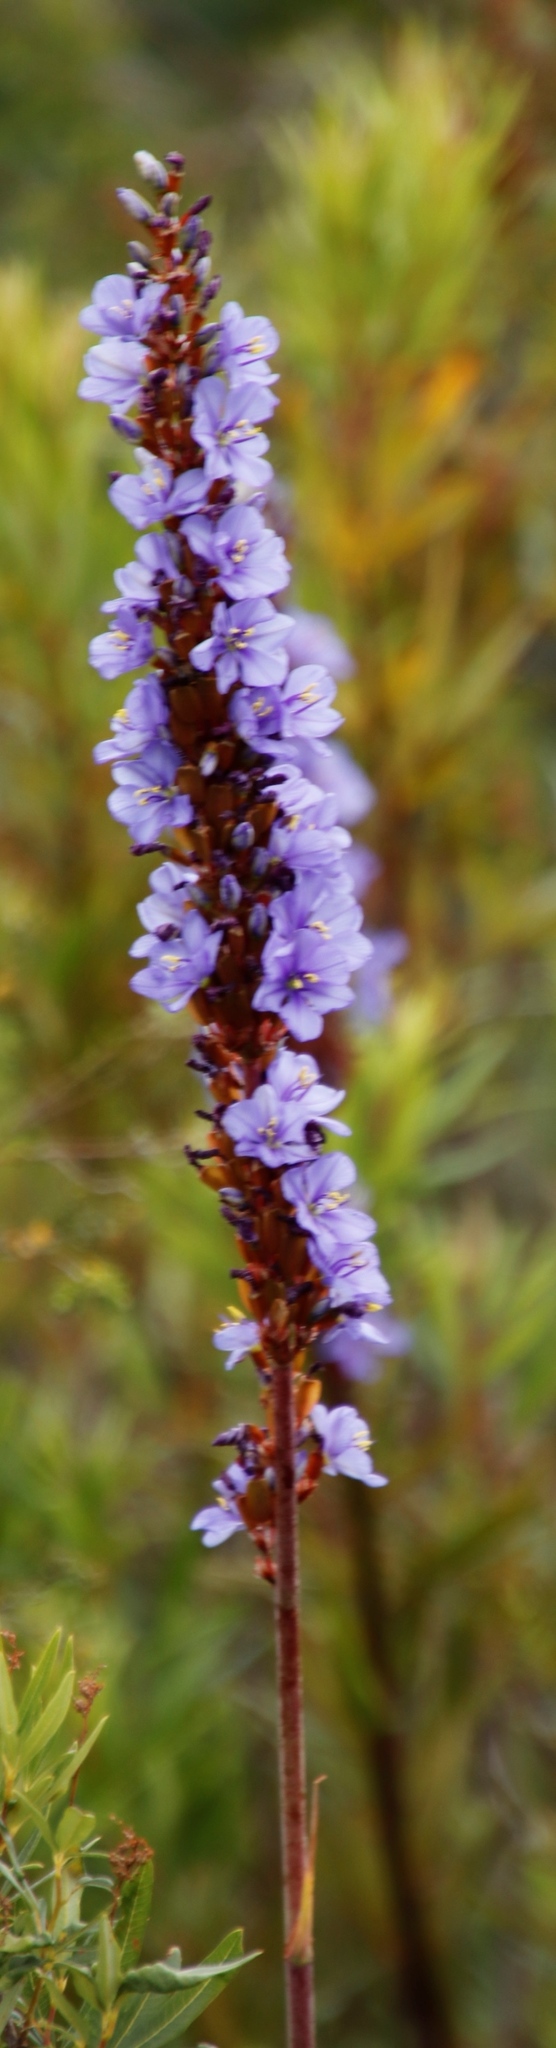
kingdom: Plantae
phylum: Tracheophyta
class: Liliopsida
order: Asparagales
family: Iridaceae
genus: Aristea
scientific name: Aristea capitata
